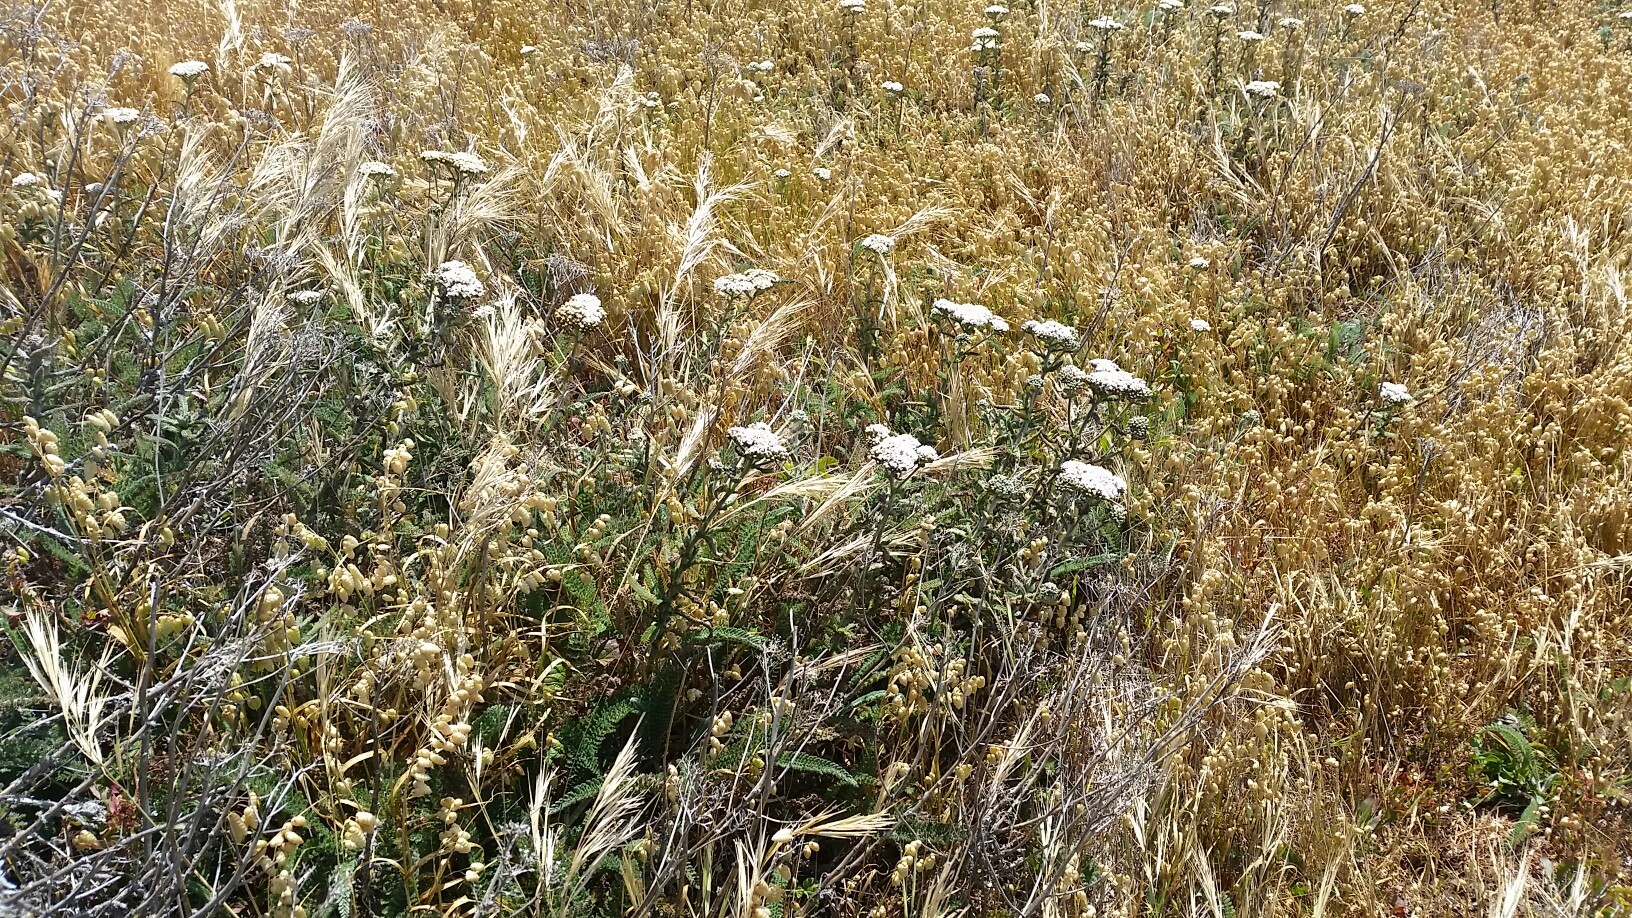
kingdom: Plantae
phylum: Tracheophyta
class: Magnoliopsida
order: Asterales
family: Asteraceae
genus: Achillea
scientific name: Achillea millefolium
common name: Yarrow
